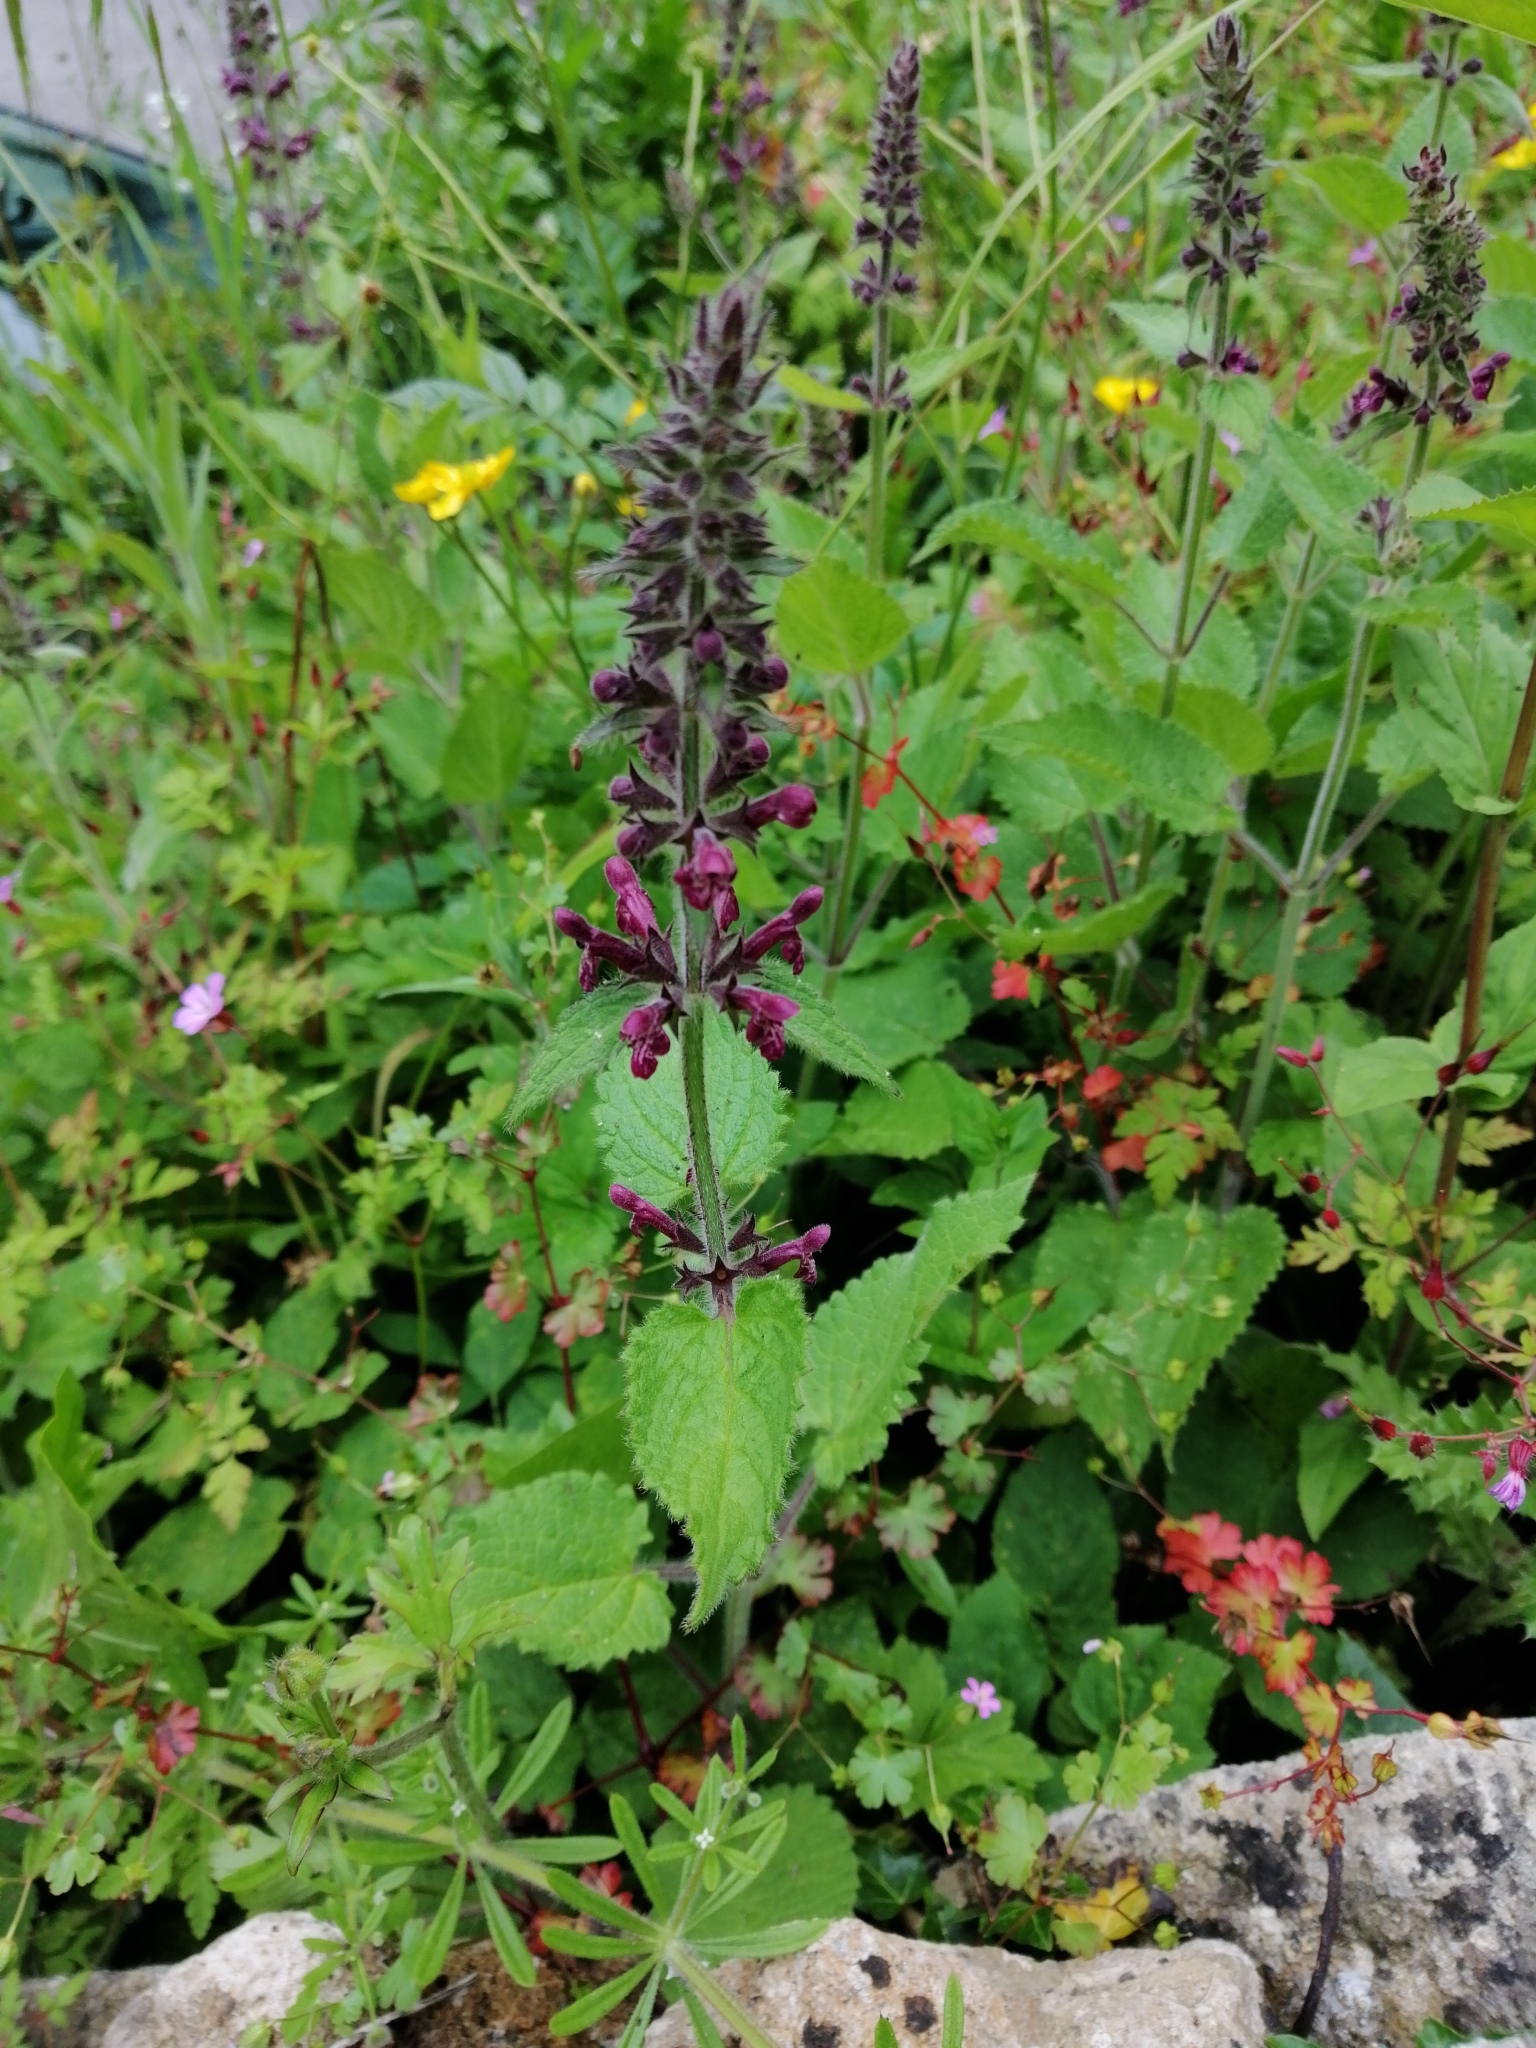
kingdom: Plantae
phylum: Tracheophyta
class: Magnoliopsida
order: Lamiales
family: Lamiaceae
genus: Stachys
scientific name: Stachys sylvatica
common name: Hedge woundwort
